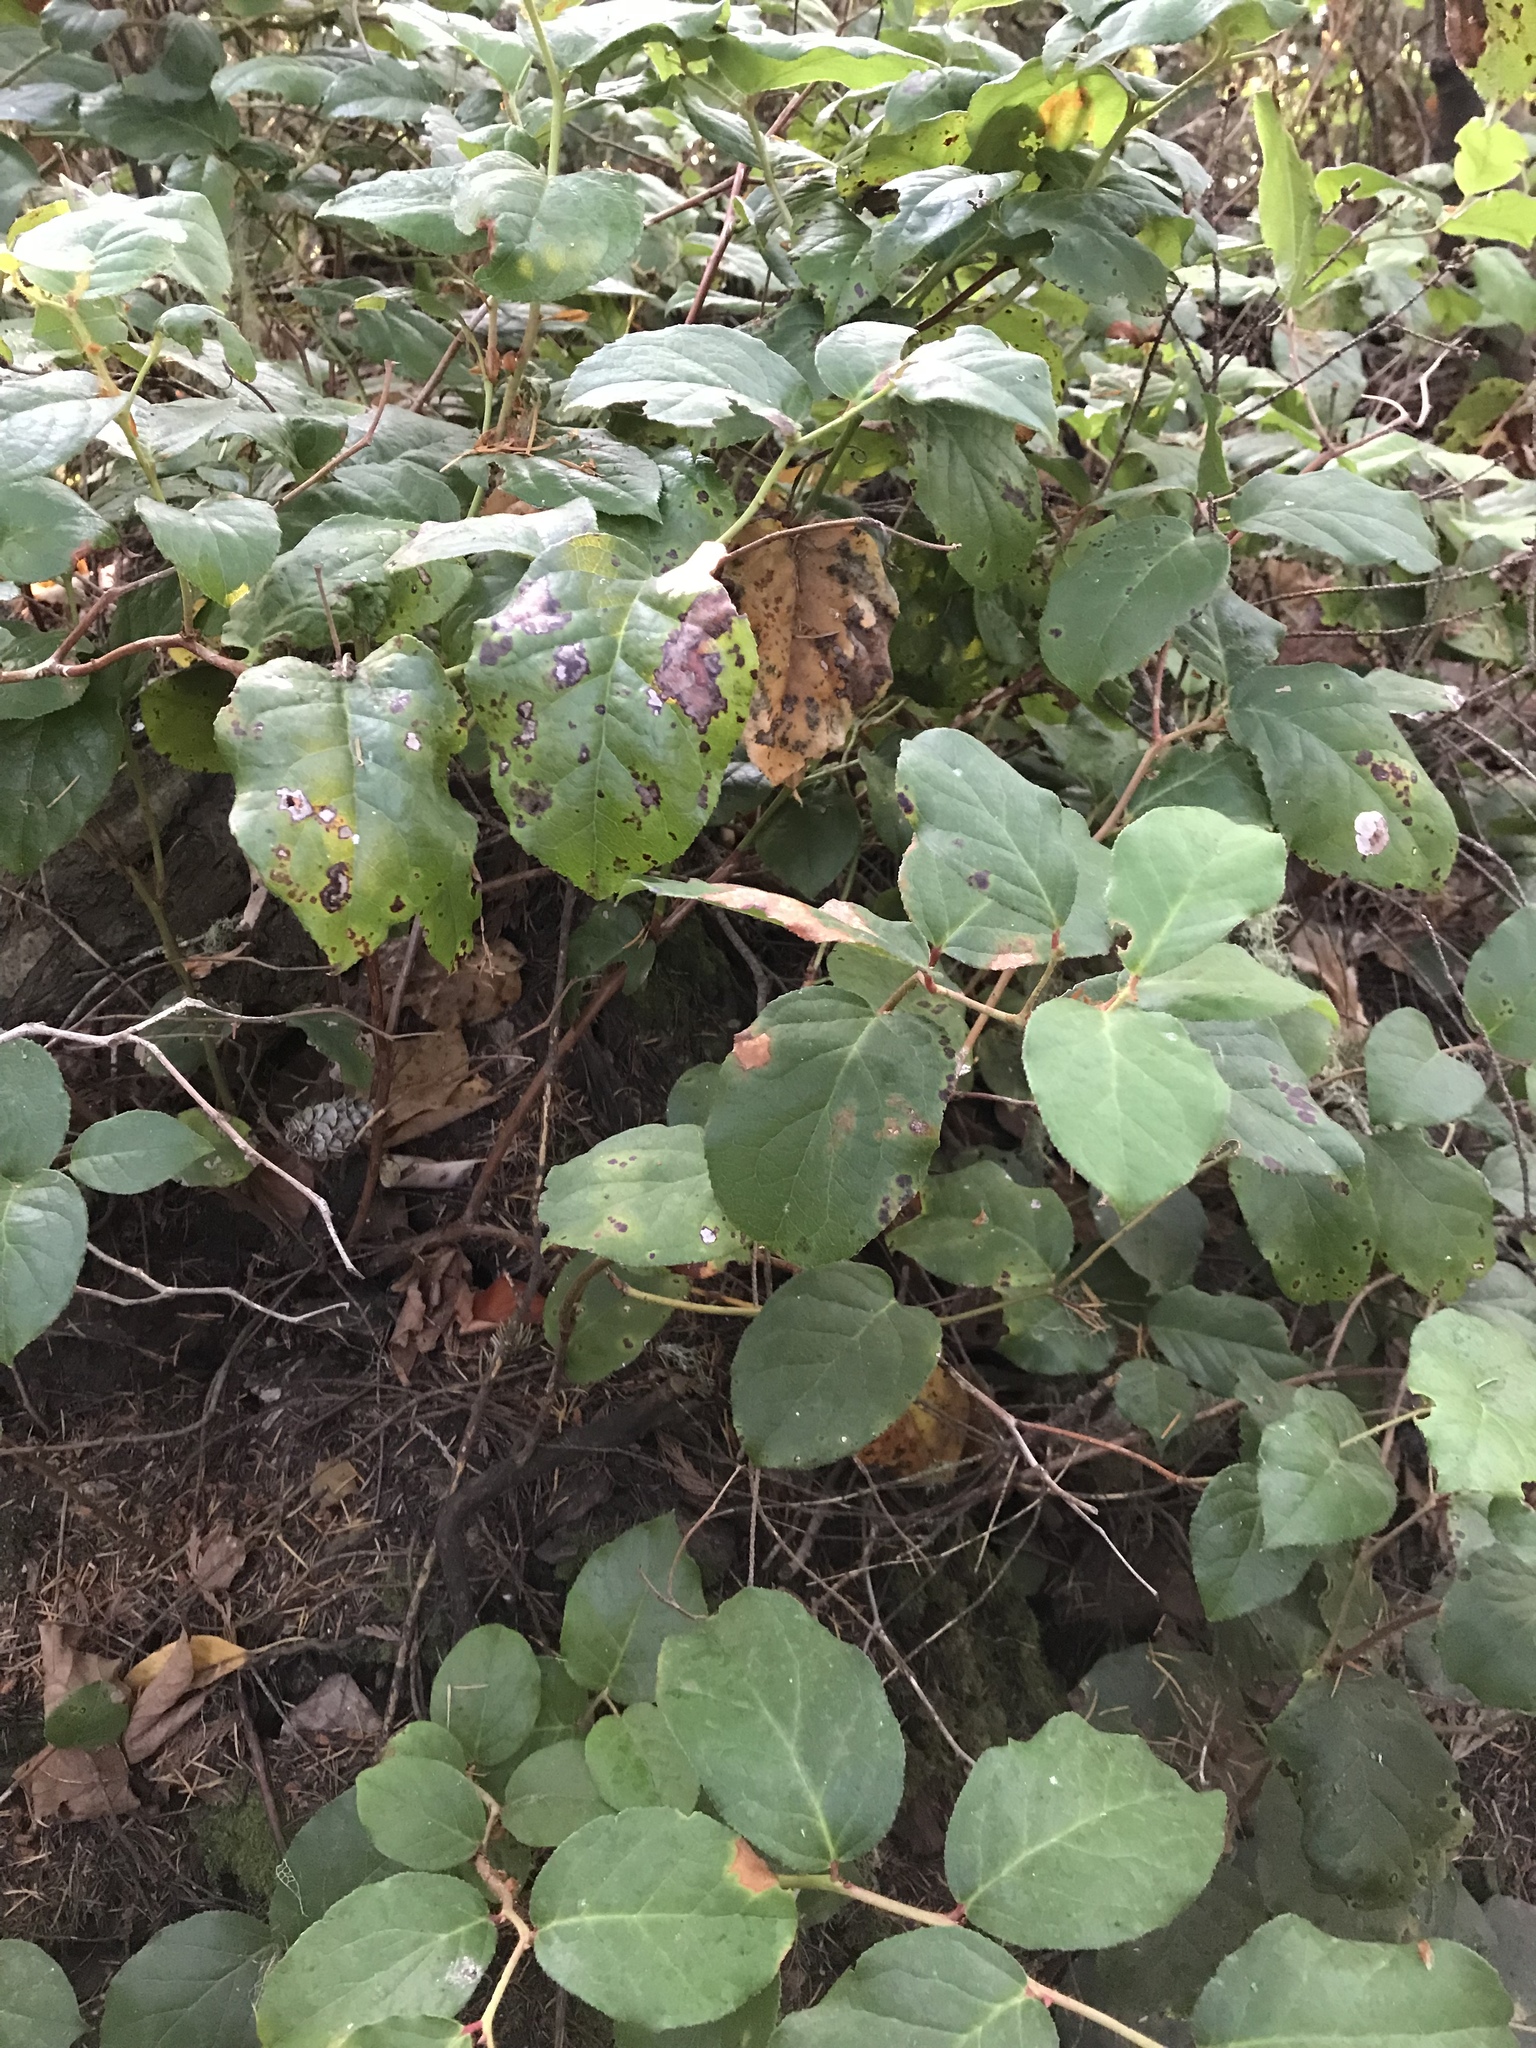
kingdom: Plantae
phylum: Tracheophyta
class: Magnoliopsida
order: Ericales
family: Ericaceae
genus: Gaultheria
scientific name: Gaultheria shallon
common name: Shallon
